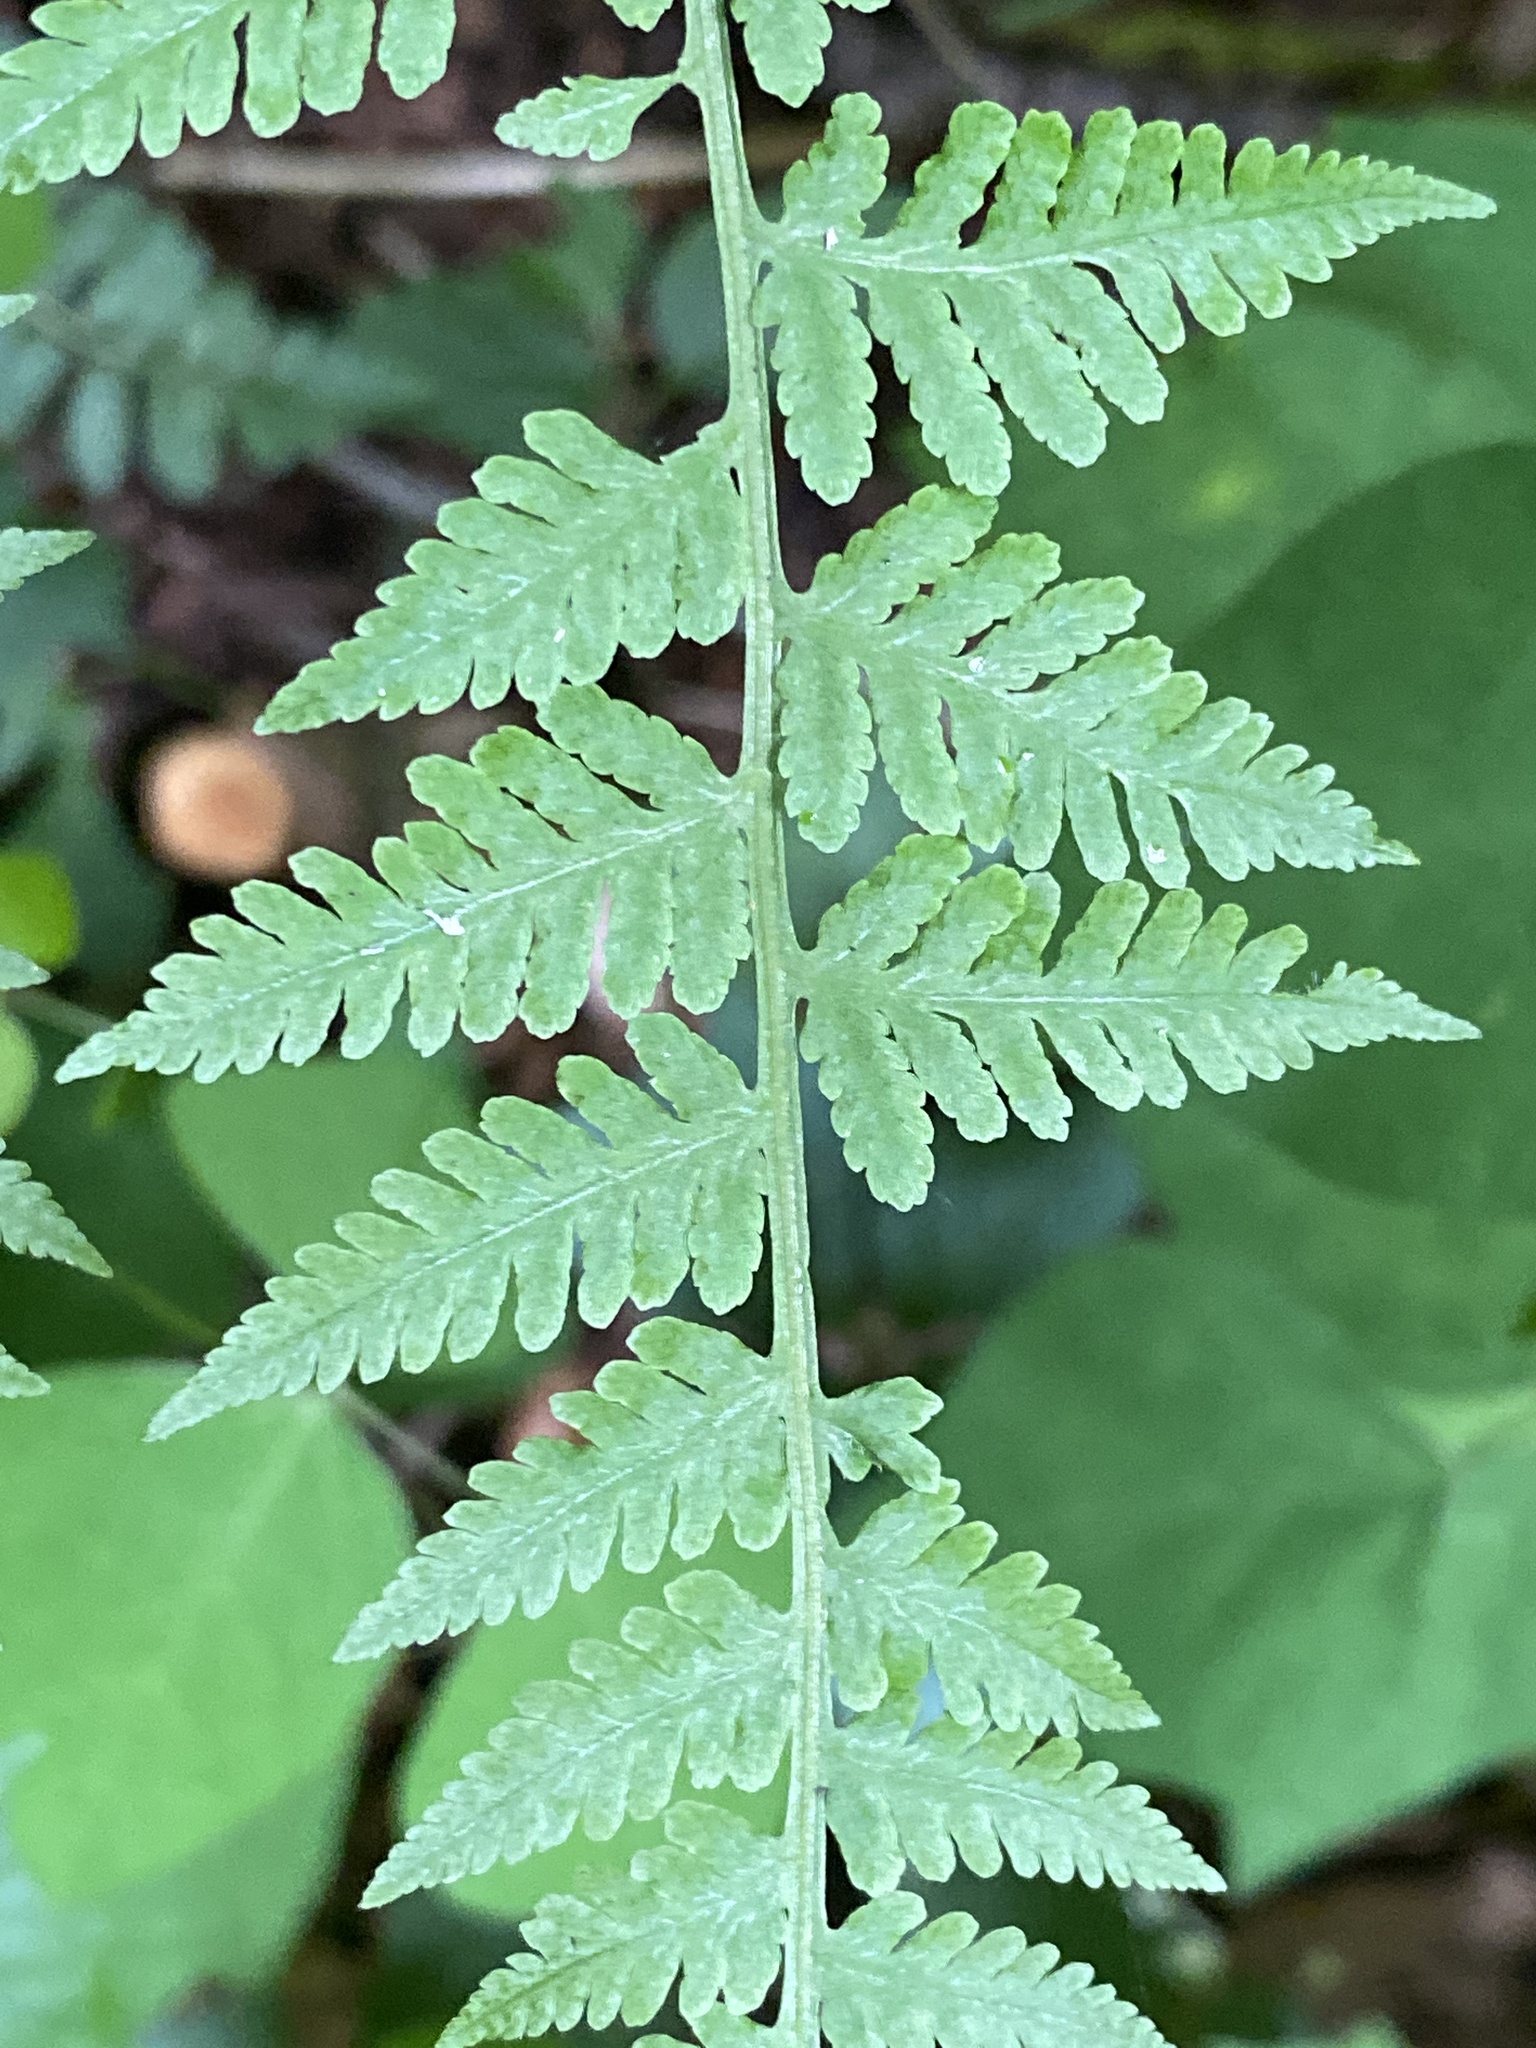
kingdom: Plantae
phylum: Tracheophyta
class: Polypodiopsida
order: Polypodiales
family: Thelypteridaceae
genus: Macrothelypteris
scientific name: Macrothelypteris torresiana
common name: Swordfern
